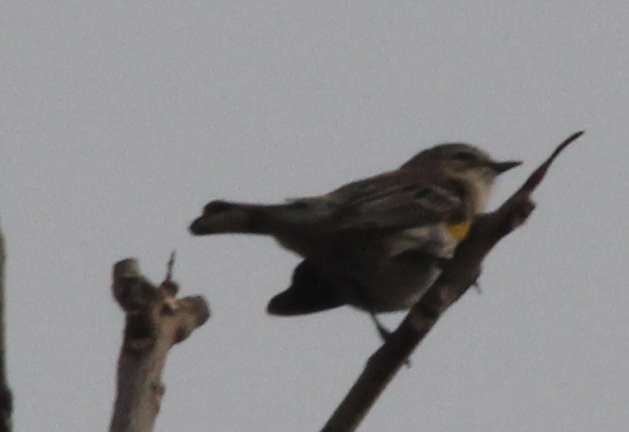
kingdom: Animalia
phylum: Chordata
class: Aves
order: Passeriformes
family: Parulidae
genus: Setophaga
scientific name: Setophaga coronata
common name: Myrtle warbler
